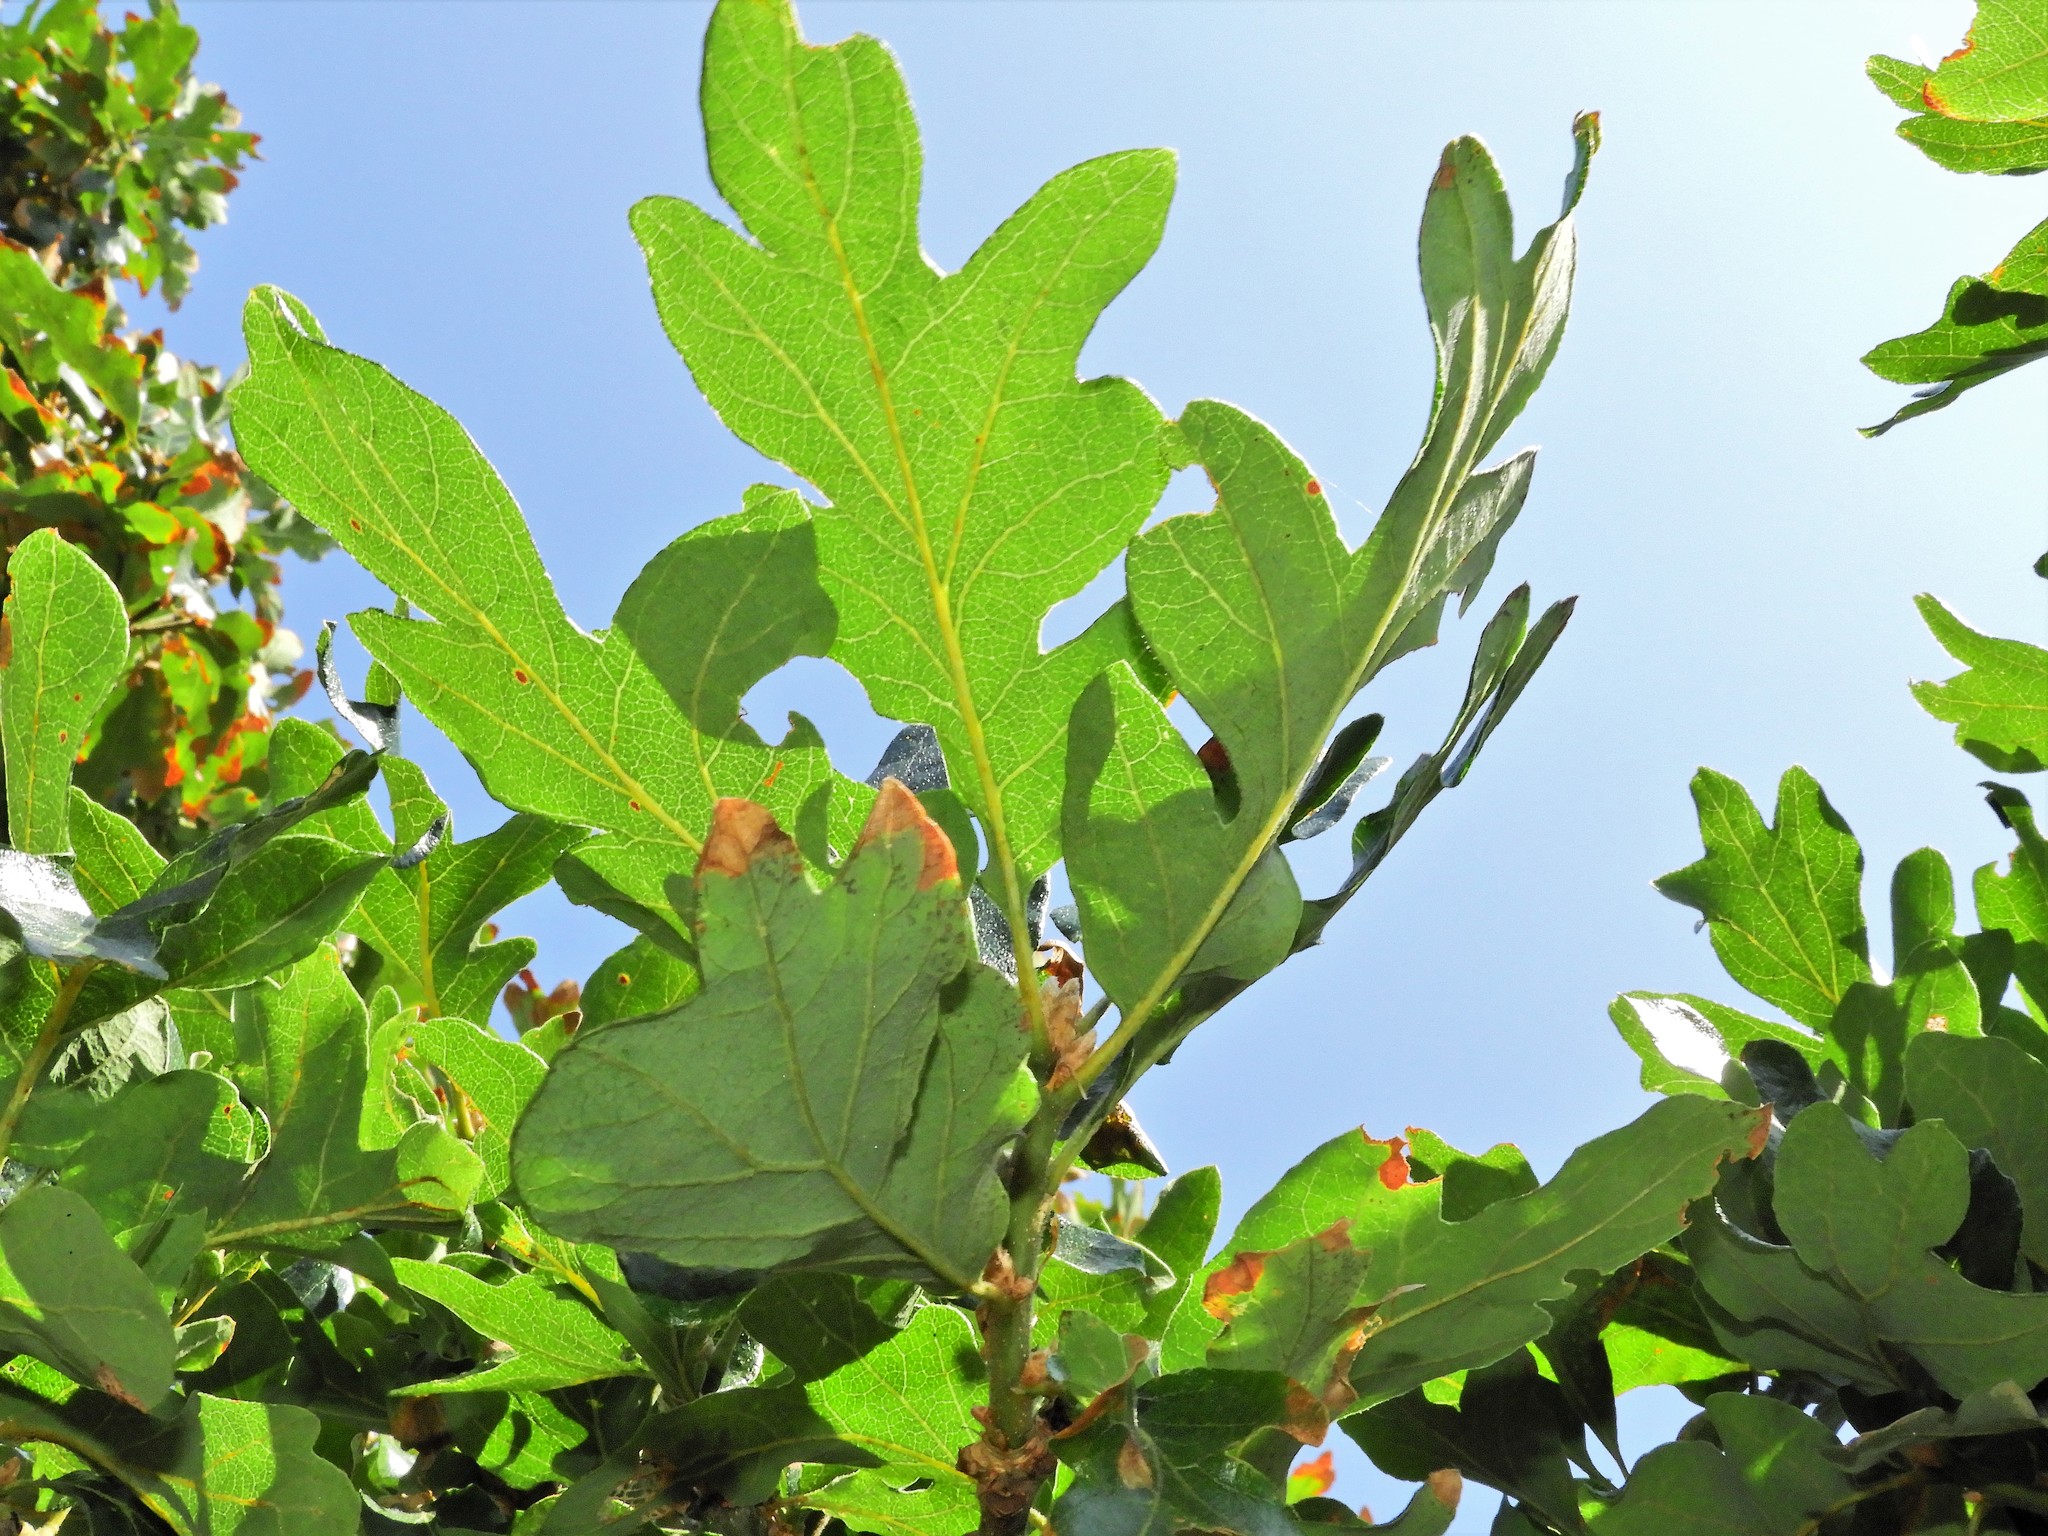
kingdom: Plantae
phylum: Tracheophyta
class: Magnoliopsida
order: Fagales
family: Fagaceae
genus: Quercus
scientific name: Quercus garryana
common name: Garry oak
